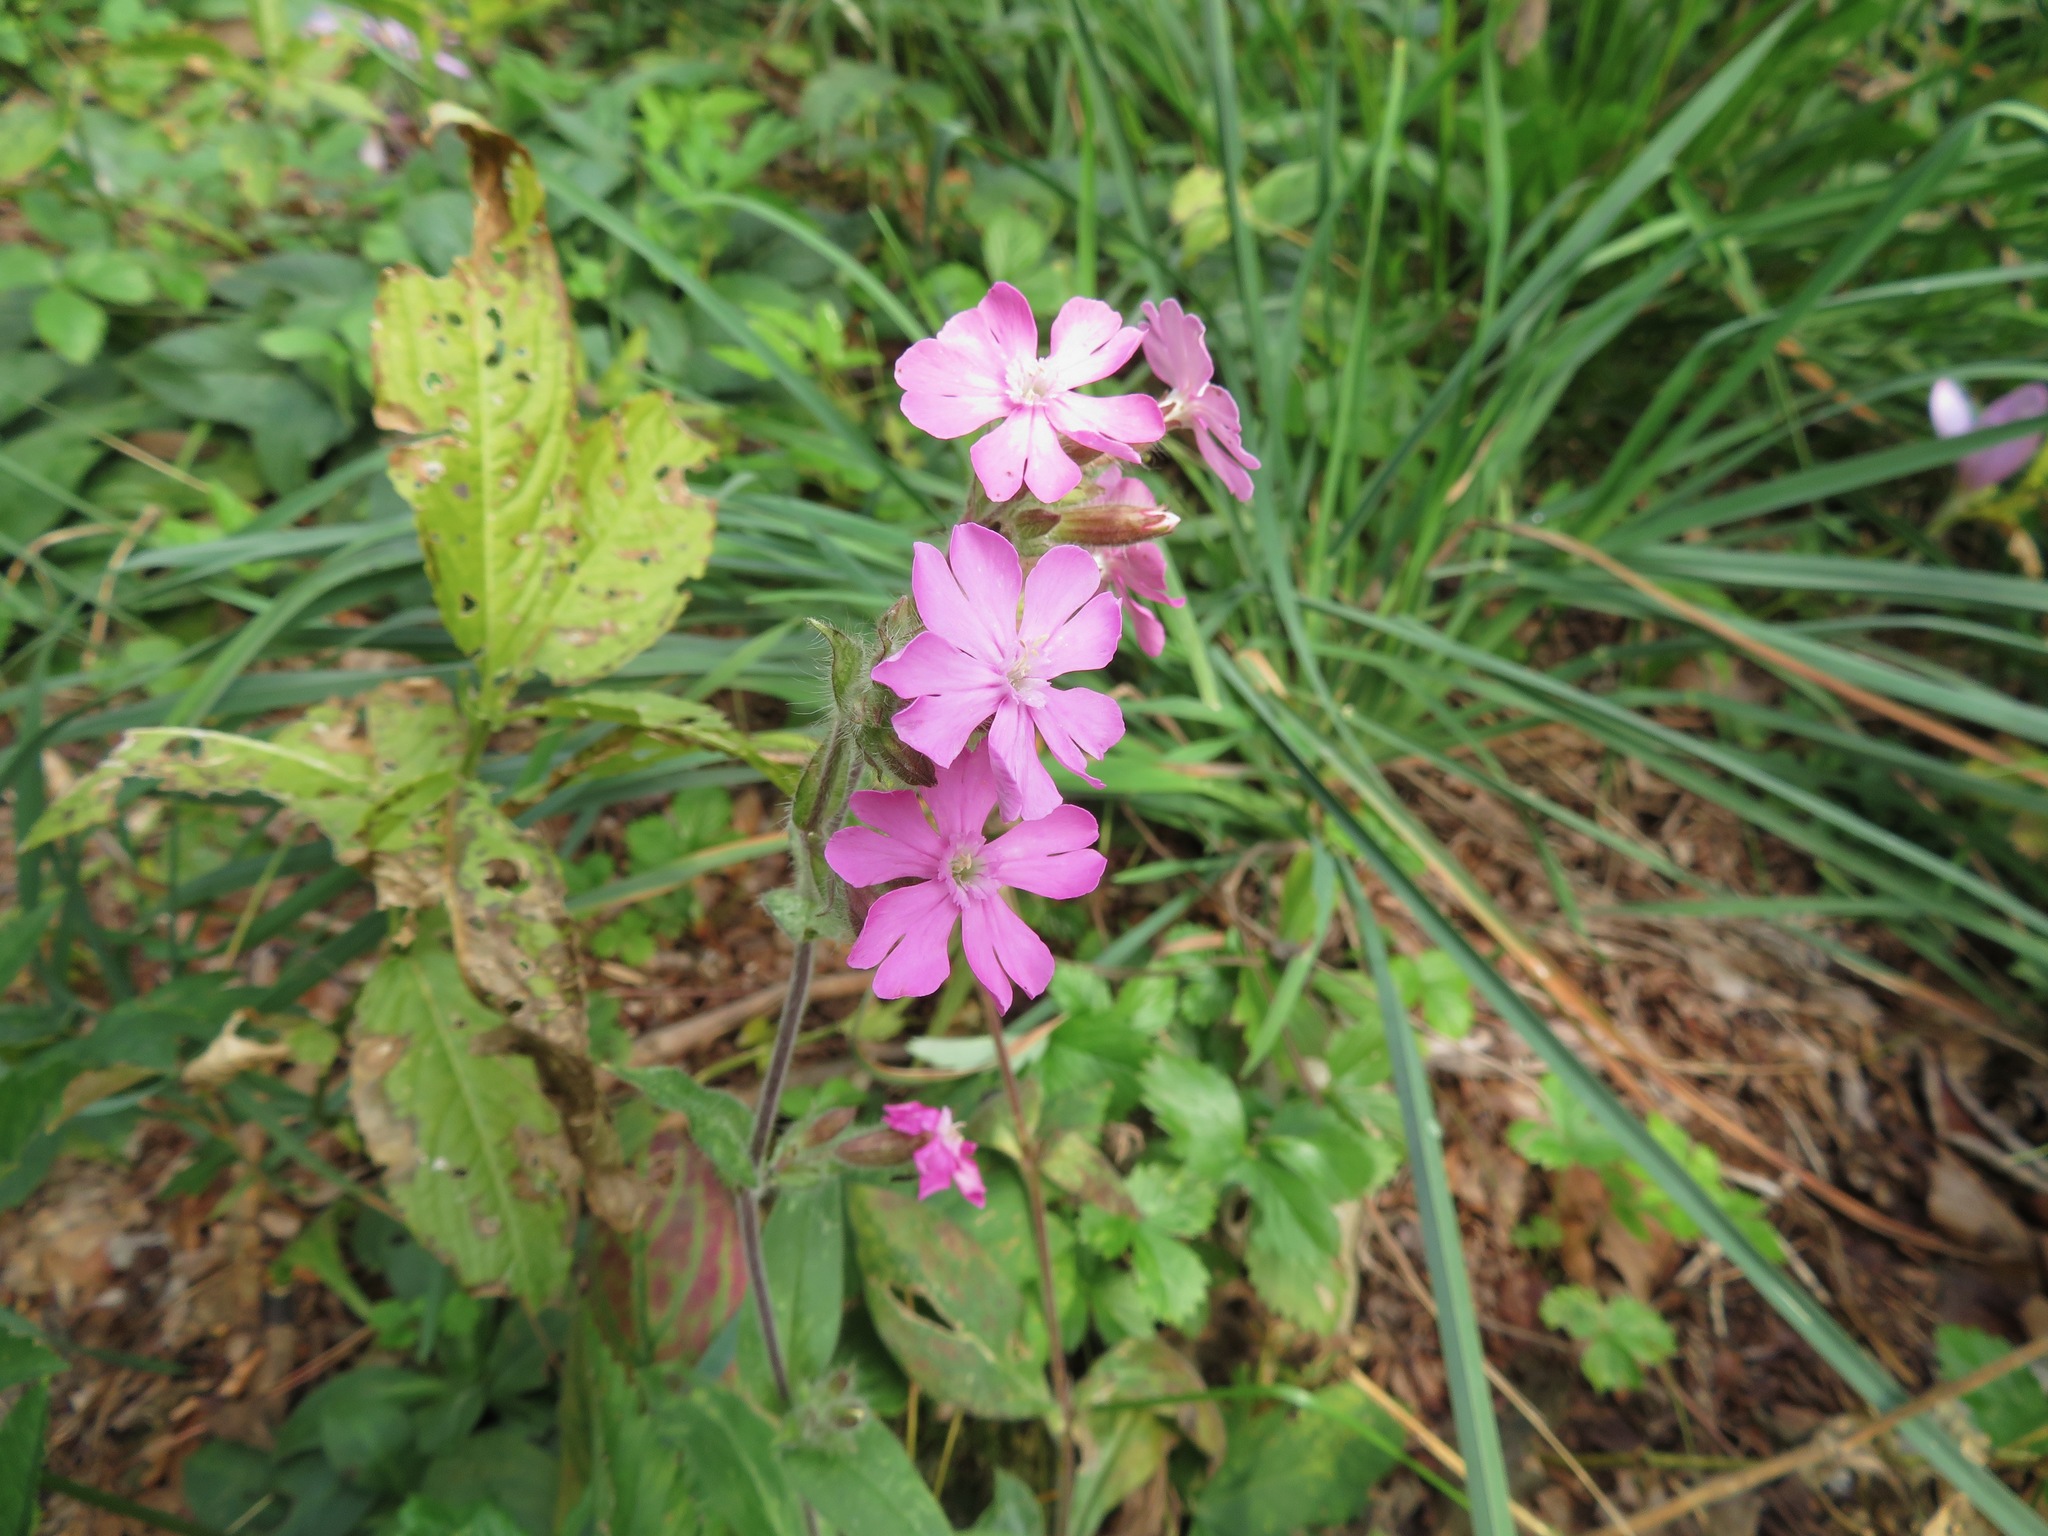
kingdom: Plantae
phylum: Tracheophyta
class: Magnoliopsida
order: Caryophyllales
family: Caryophyllaceae
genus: Silene
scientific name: Silene dioica
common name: Red campion
